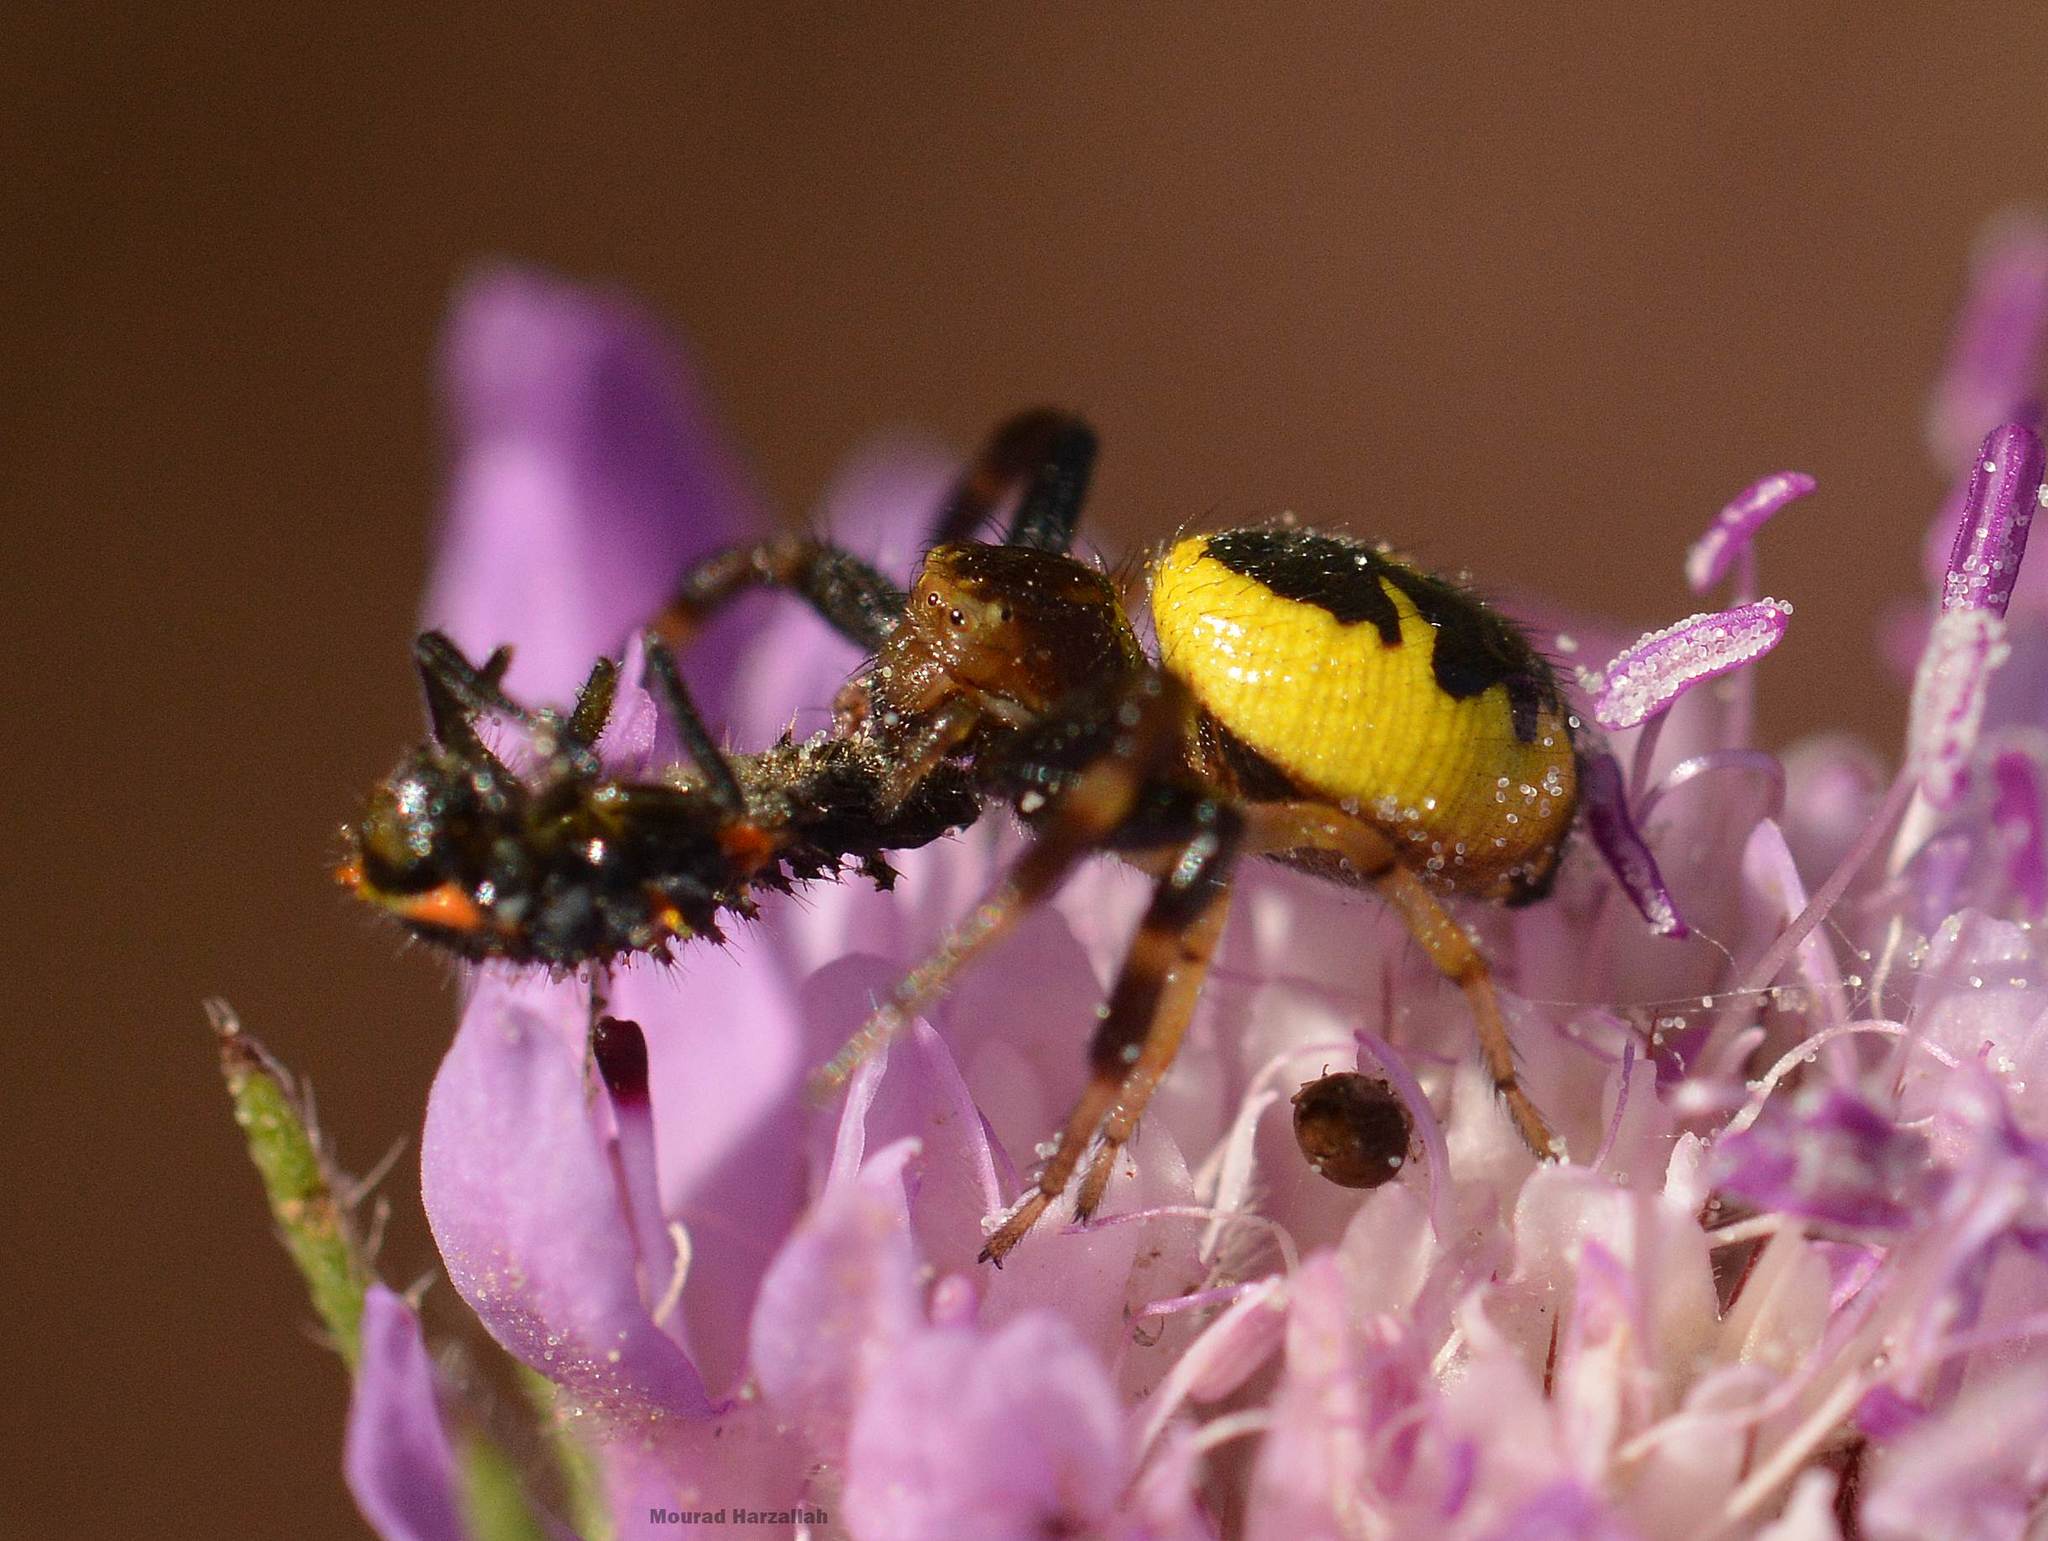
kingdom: Animalia
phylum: Arthropoda
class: Arachnida
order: Araneae
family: Thomisidae
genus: Synema
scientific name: Synema globosum
